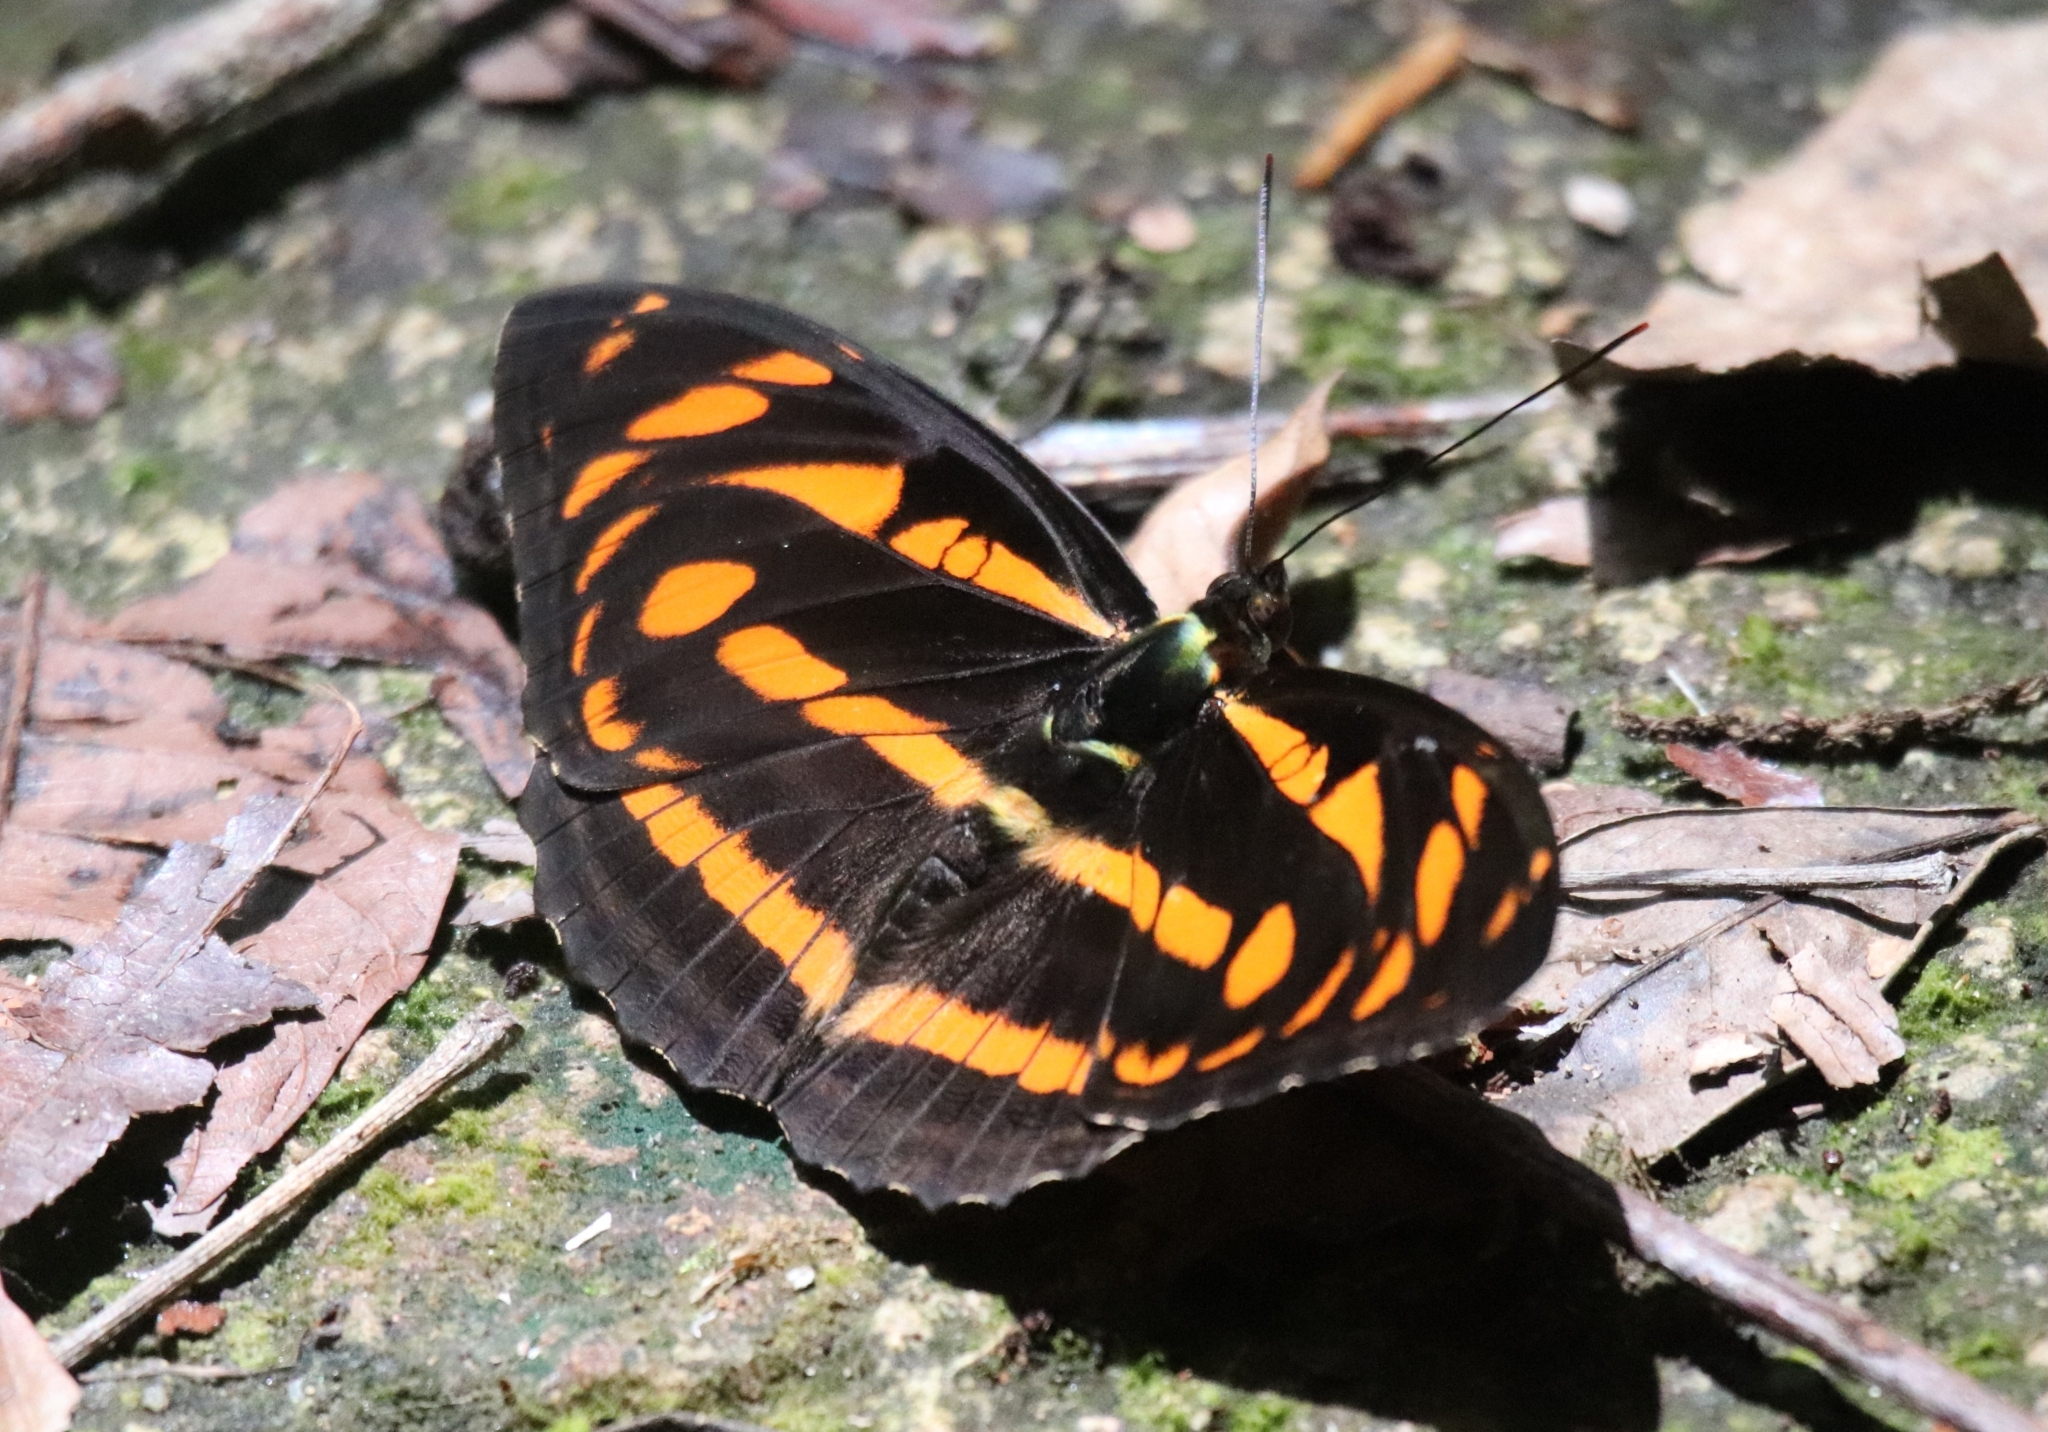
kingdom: Animalia
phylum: Arthropoda
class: Insecta
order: Lepidoptera
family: Nymphalidae
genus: Pantoporia
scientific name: Pantoporia eulimene
